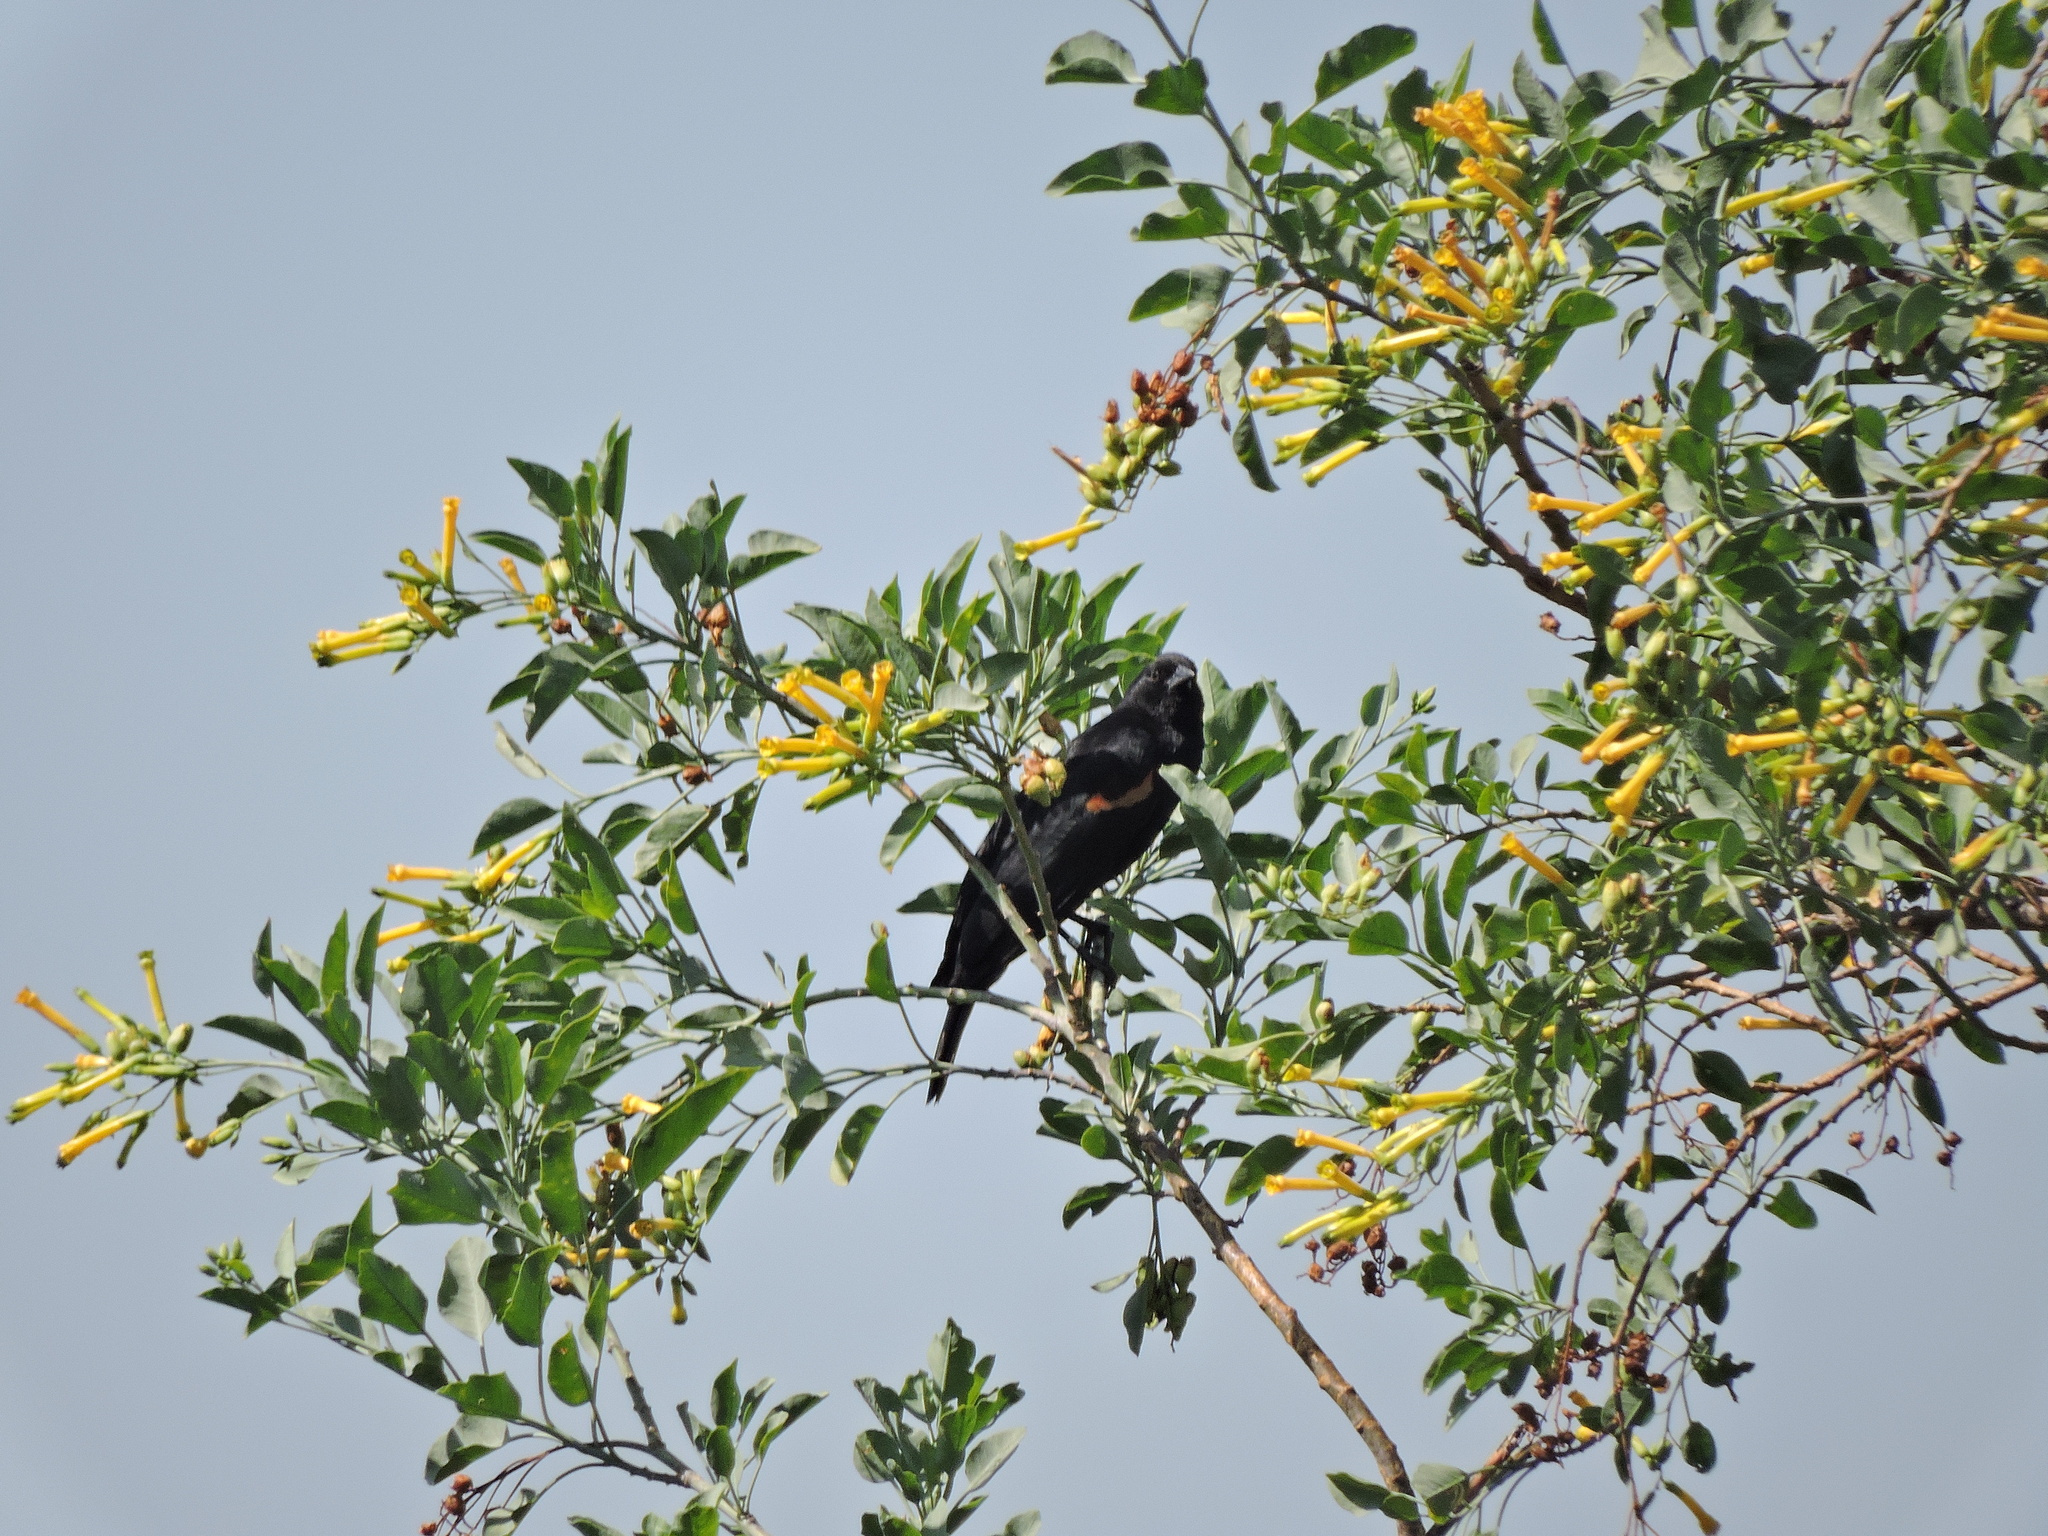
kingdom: Animalia
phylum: Chordata
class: Aves
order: Passeriformes
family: Icteridae
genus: Agelaius
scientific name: Agelaius phoeniceus
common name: Red-winged blackbird
